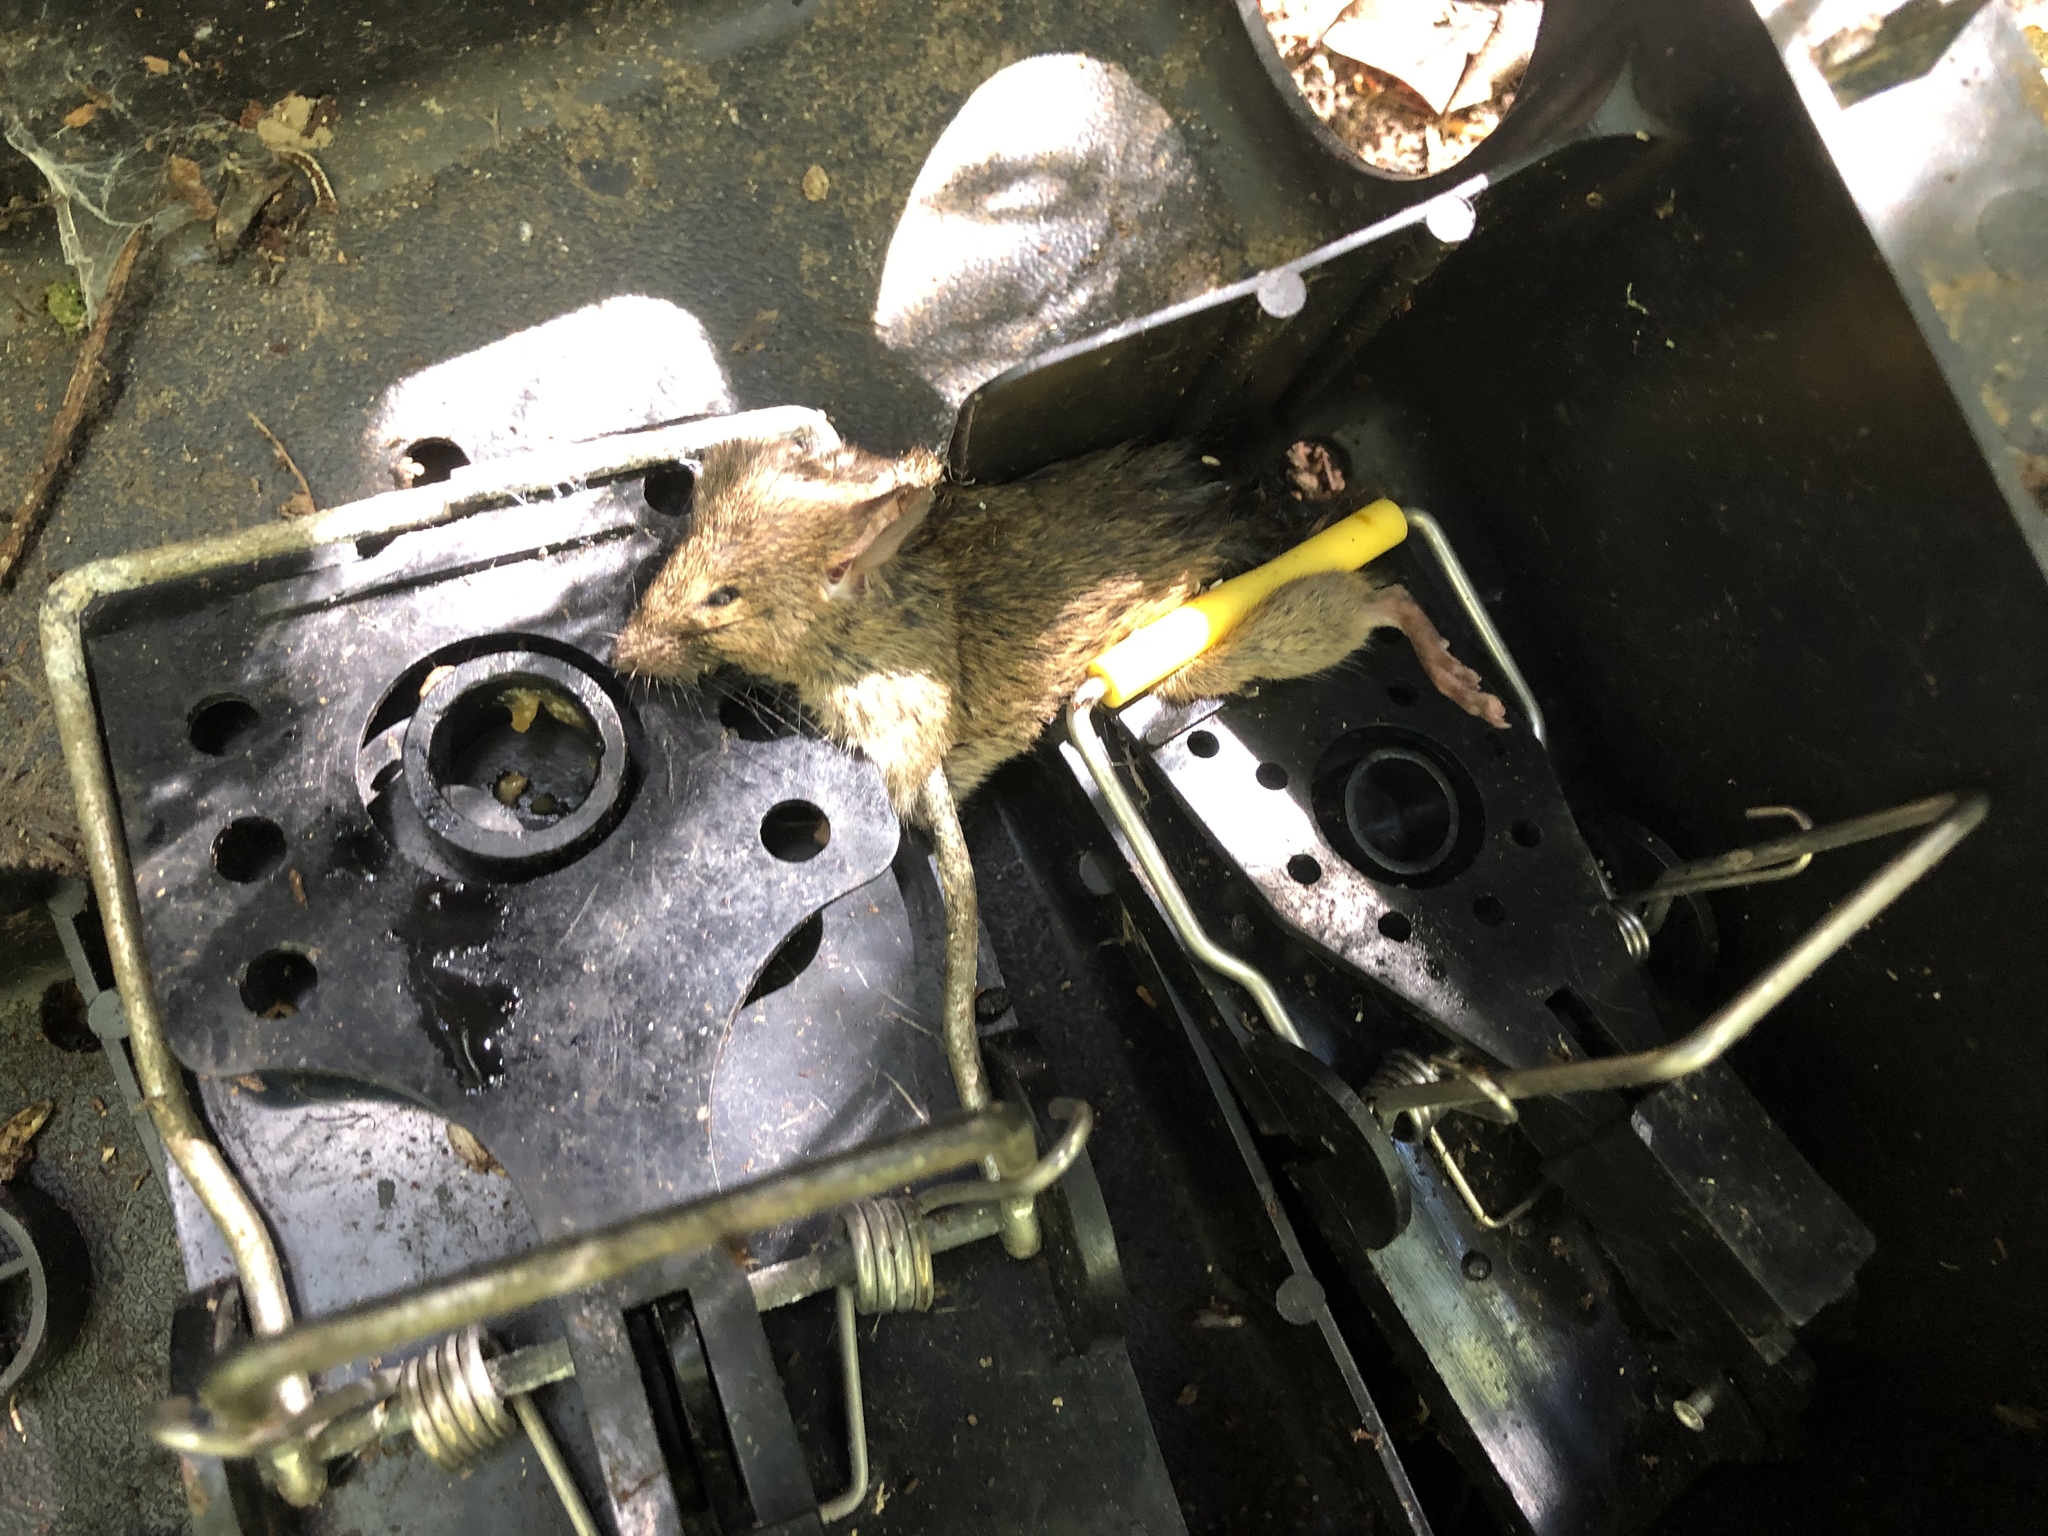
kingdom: Animalia
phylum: Chordata
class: Mammalia
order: Rodentia
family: Muridae
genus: Mus
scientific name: Mus musculus
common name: House mouse
